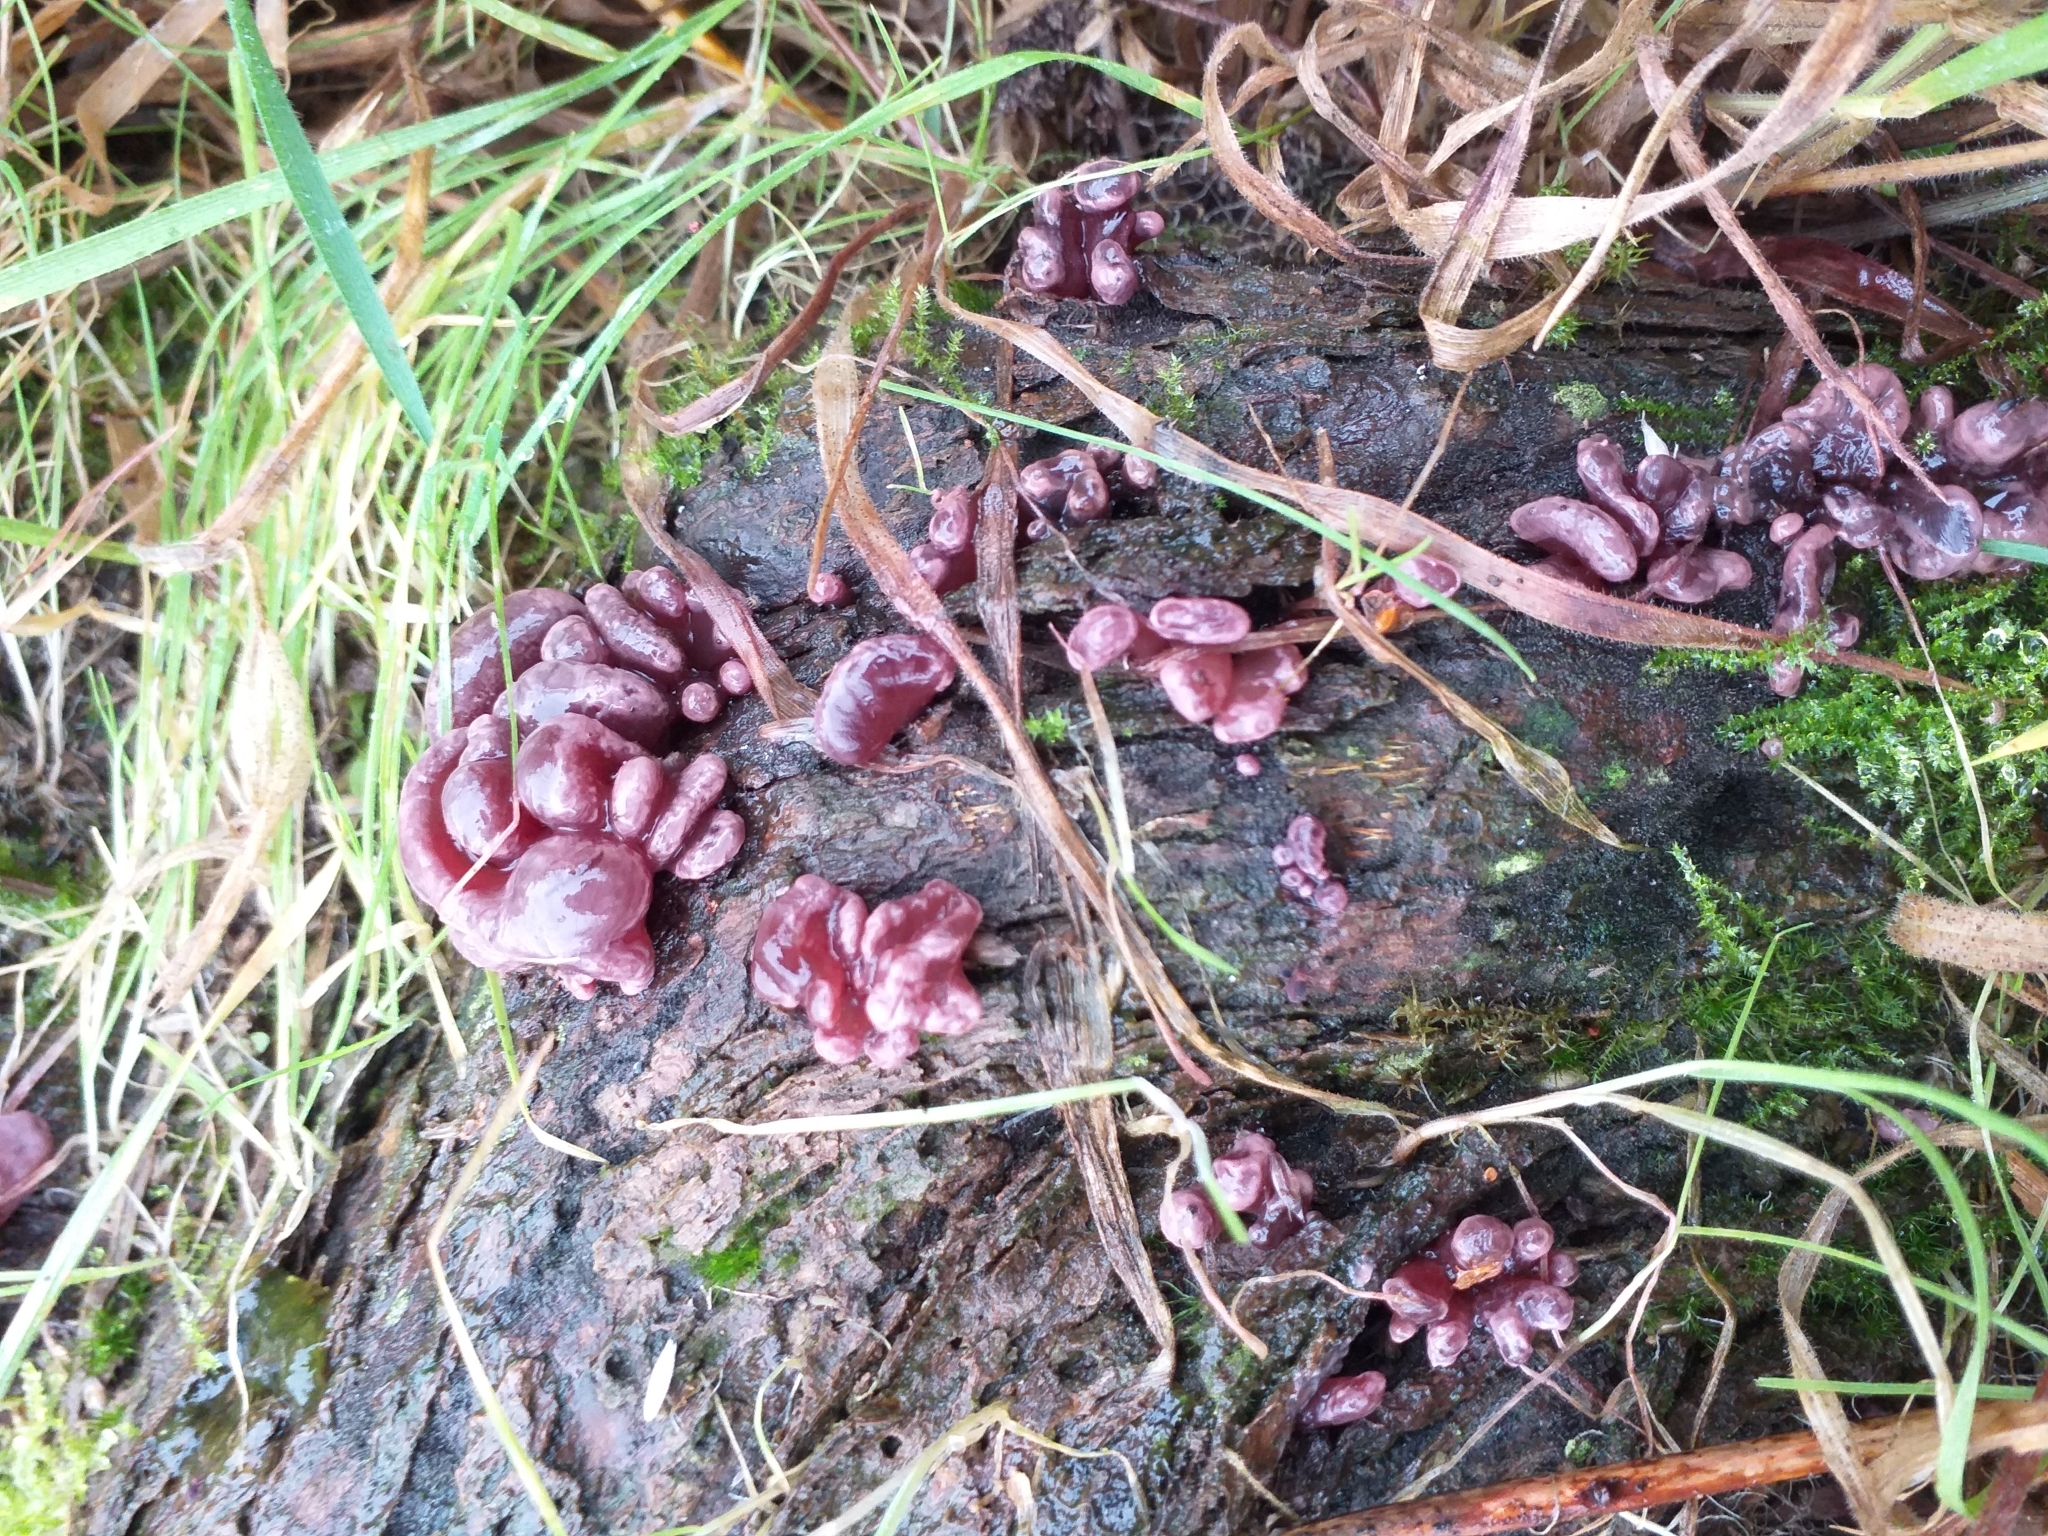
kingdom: Fungi
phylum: Ascomycota
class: Leotiomycetes
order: Helotiales
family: Gelatinodiscaceae
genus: Ascocoryne
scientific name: Ascocoryne sarcoides
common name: Purple jellydisc
